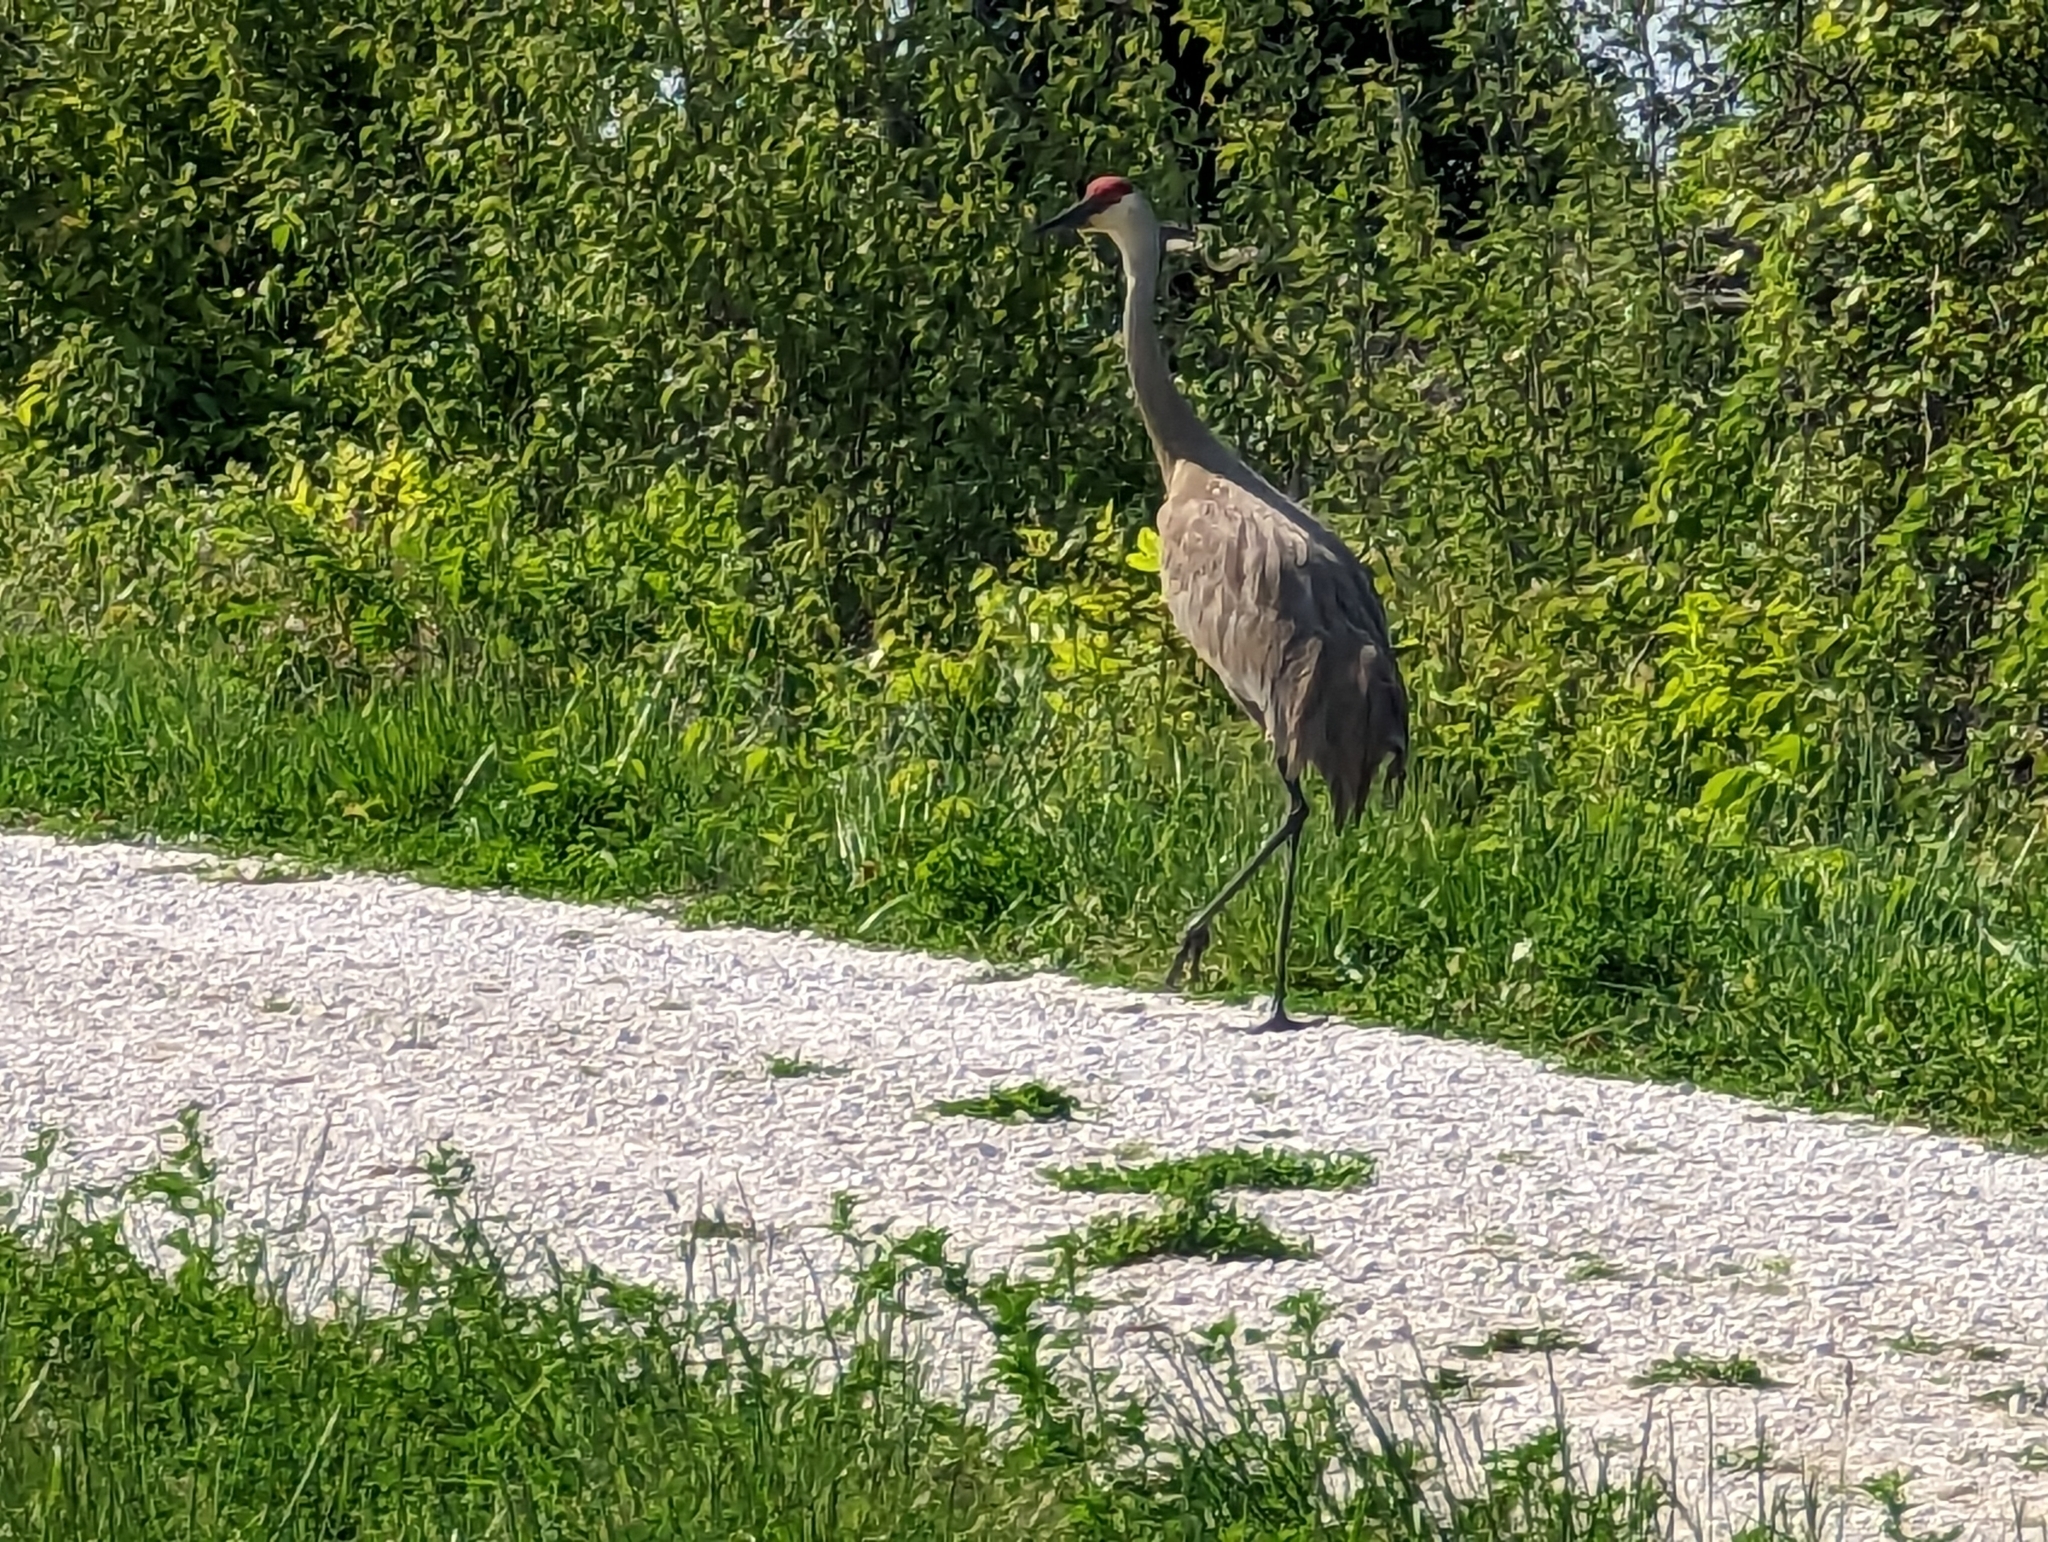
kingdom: Animalia
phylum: Chordata
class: Aves
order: Gruiformes
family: Gruidae
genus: Grus
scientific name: Grus canadensis
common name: Sandhill crane
